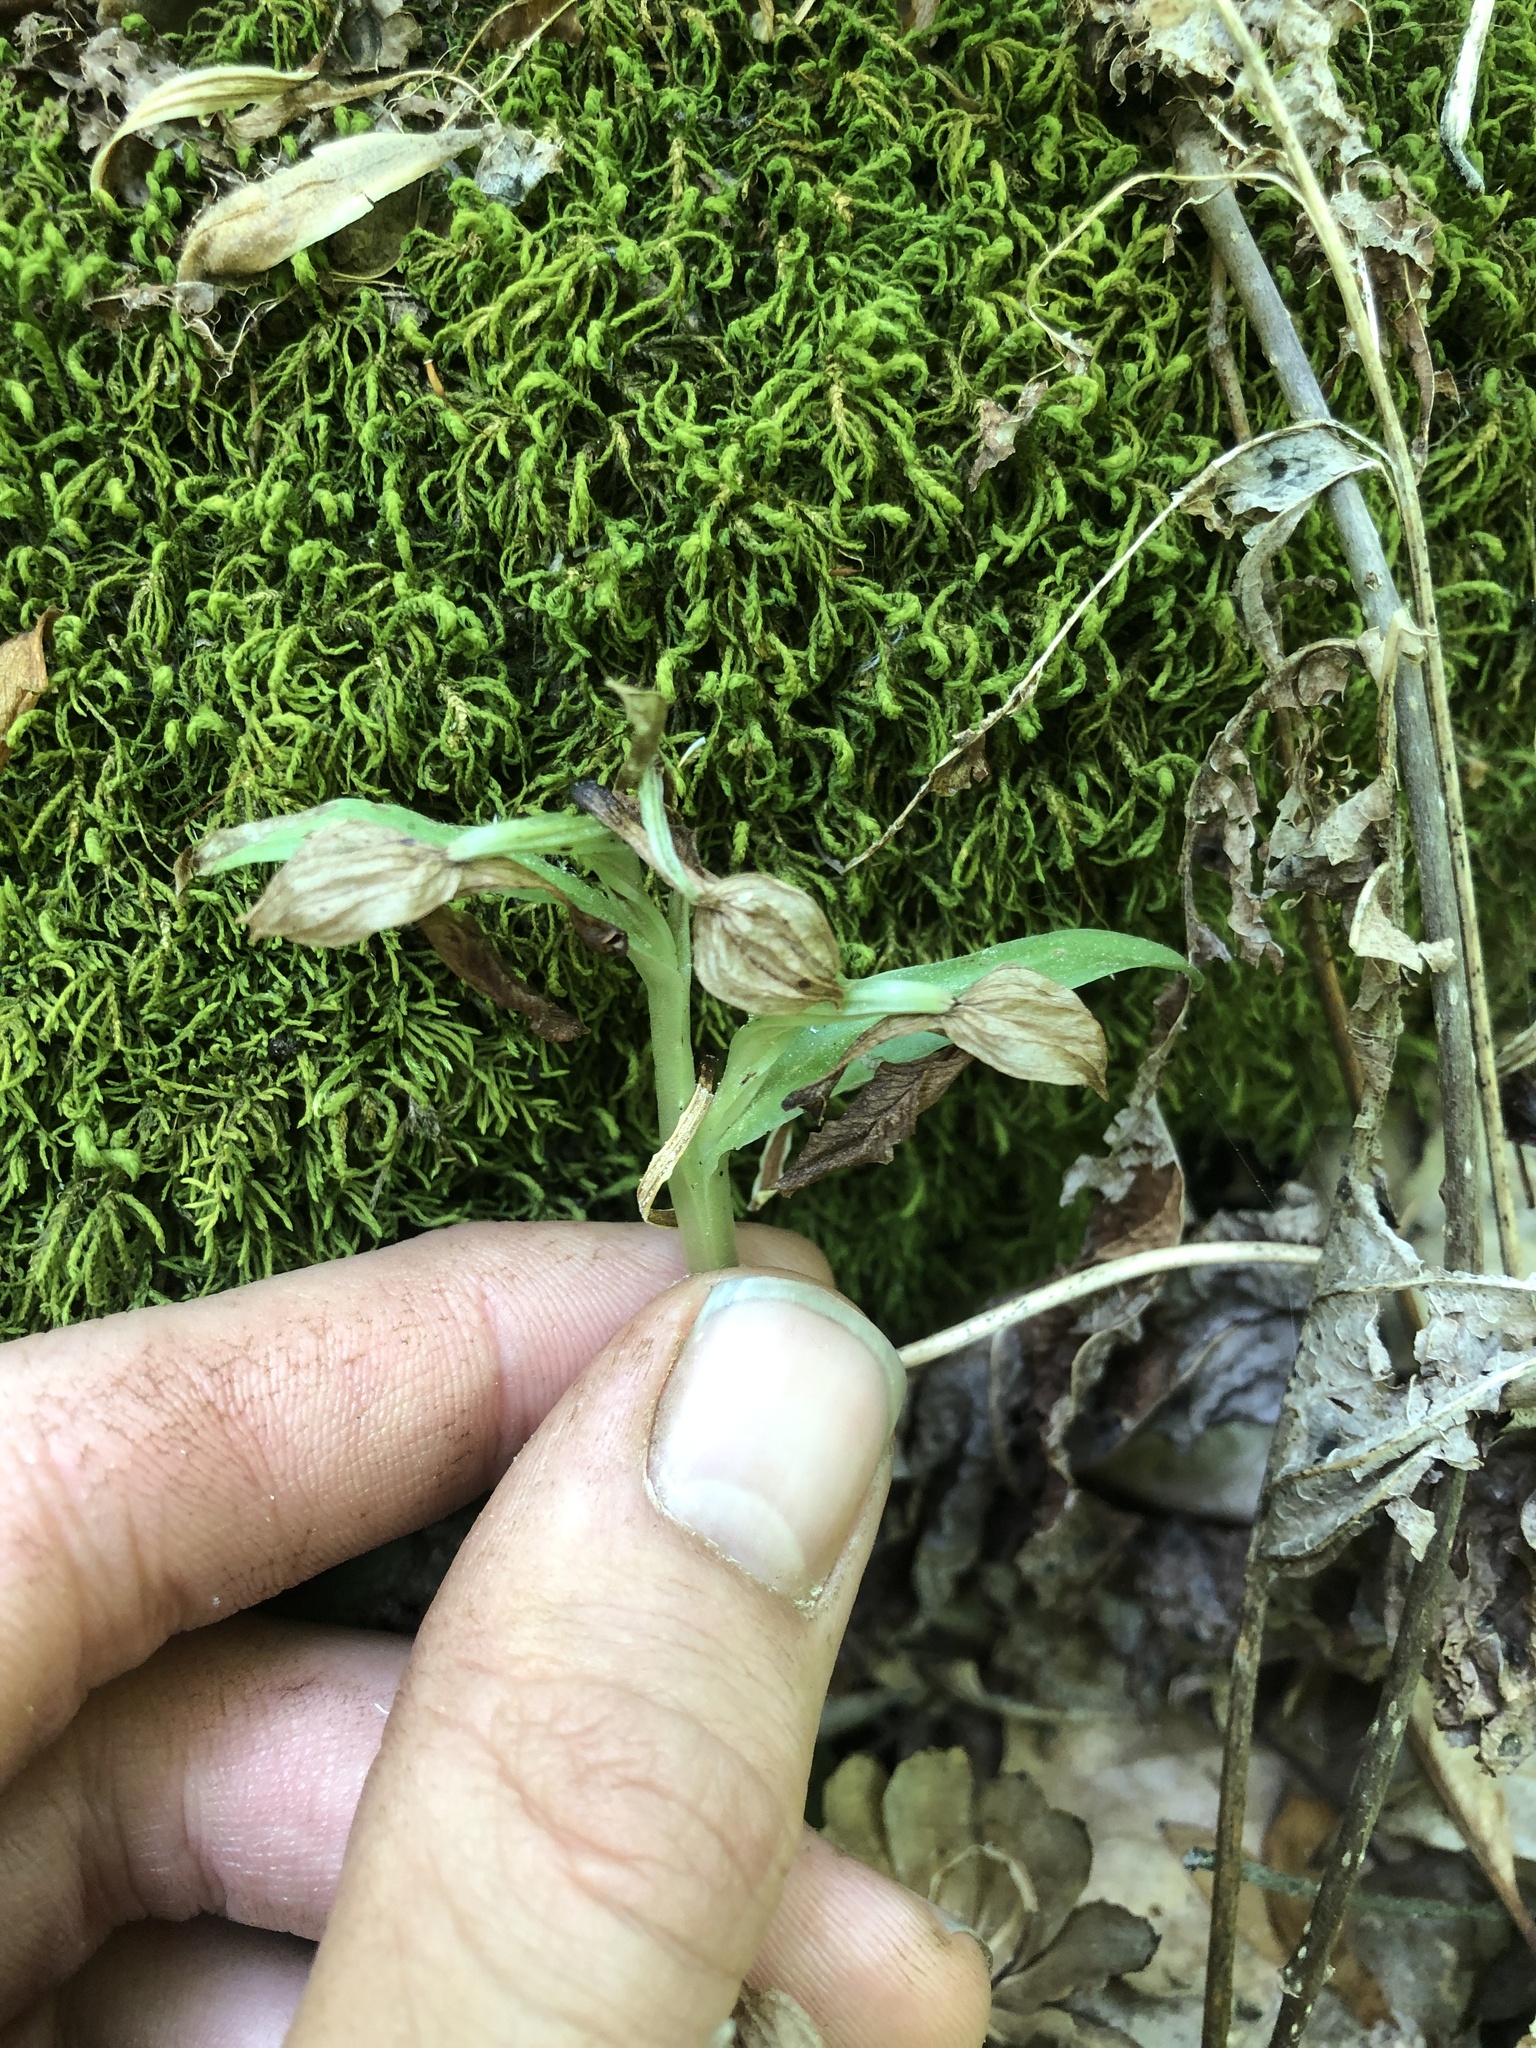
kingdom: Plantae
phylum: Tracheophyta
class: Liliopsida
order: Asparagales
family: Orchidaceae
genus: Galearis
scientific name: Galearis spectabilis
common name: Purple-hooded orchis
